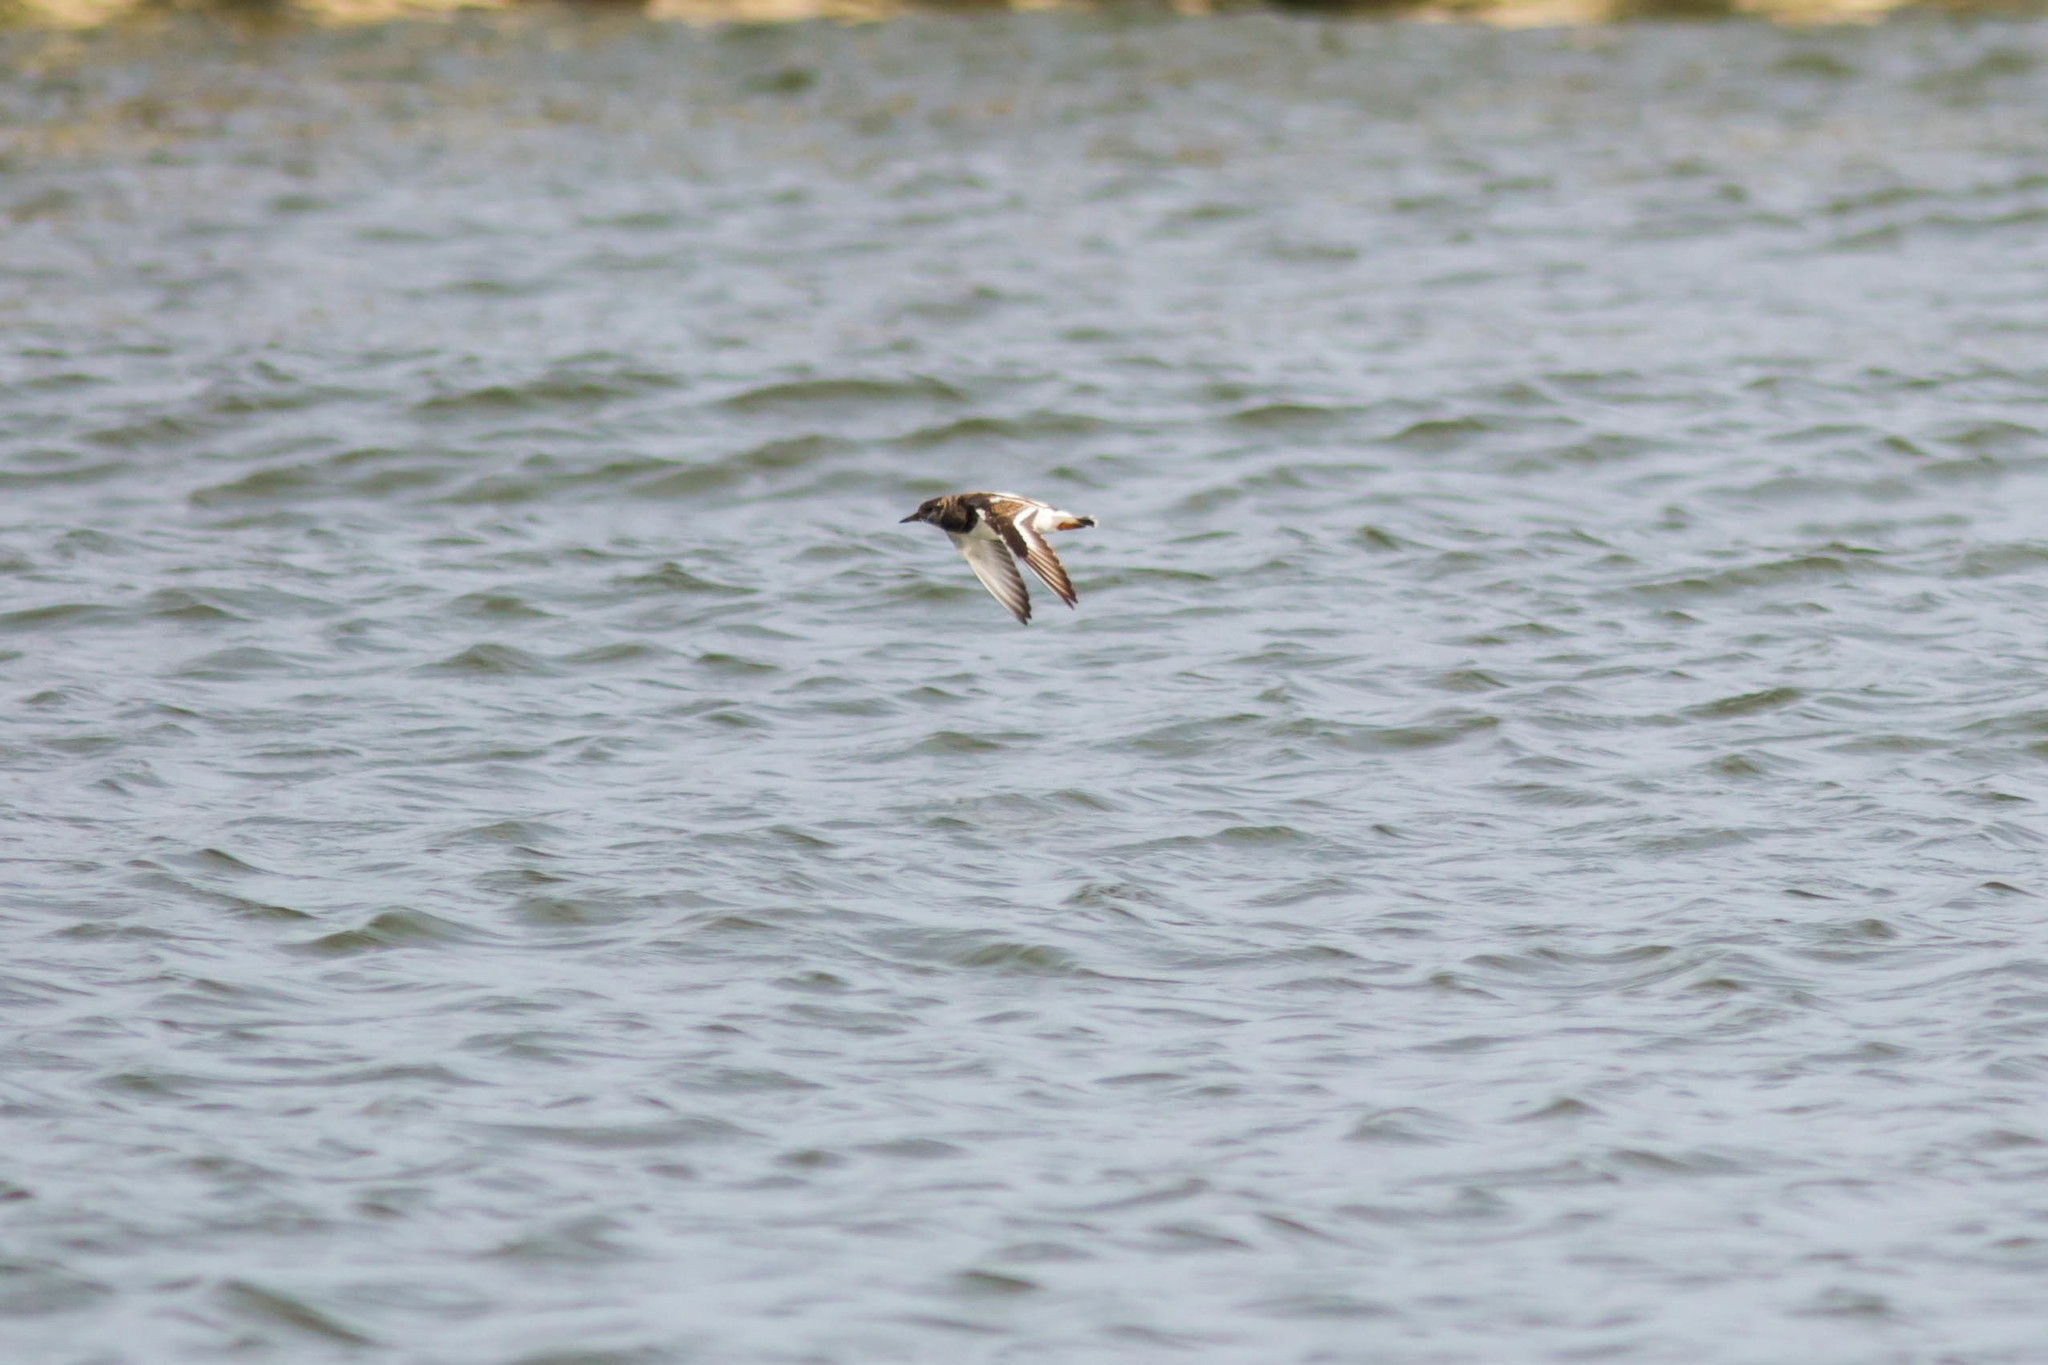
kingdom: Animalia
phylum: Chordata
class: Aves
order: Charadriiformes
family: Scolopacidae
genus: Arenaria
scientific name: Arenaria interpres
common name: Ruddy turnstone
